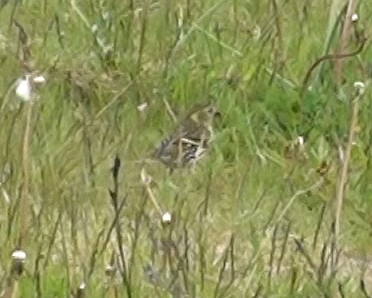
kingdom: Animalia
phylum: Chordata
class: Aves
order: Passeriformes
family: Fringillidae
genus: Spinus
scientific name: Spinus spinus
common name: Eurasian siskin
